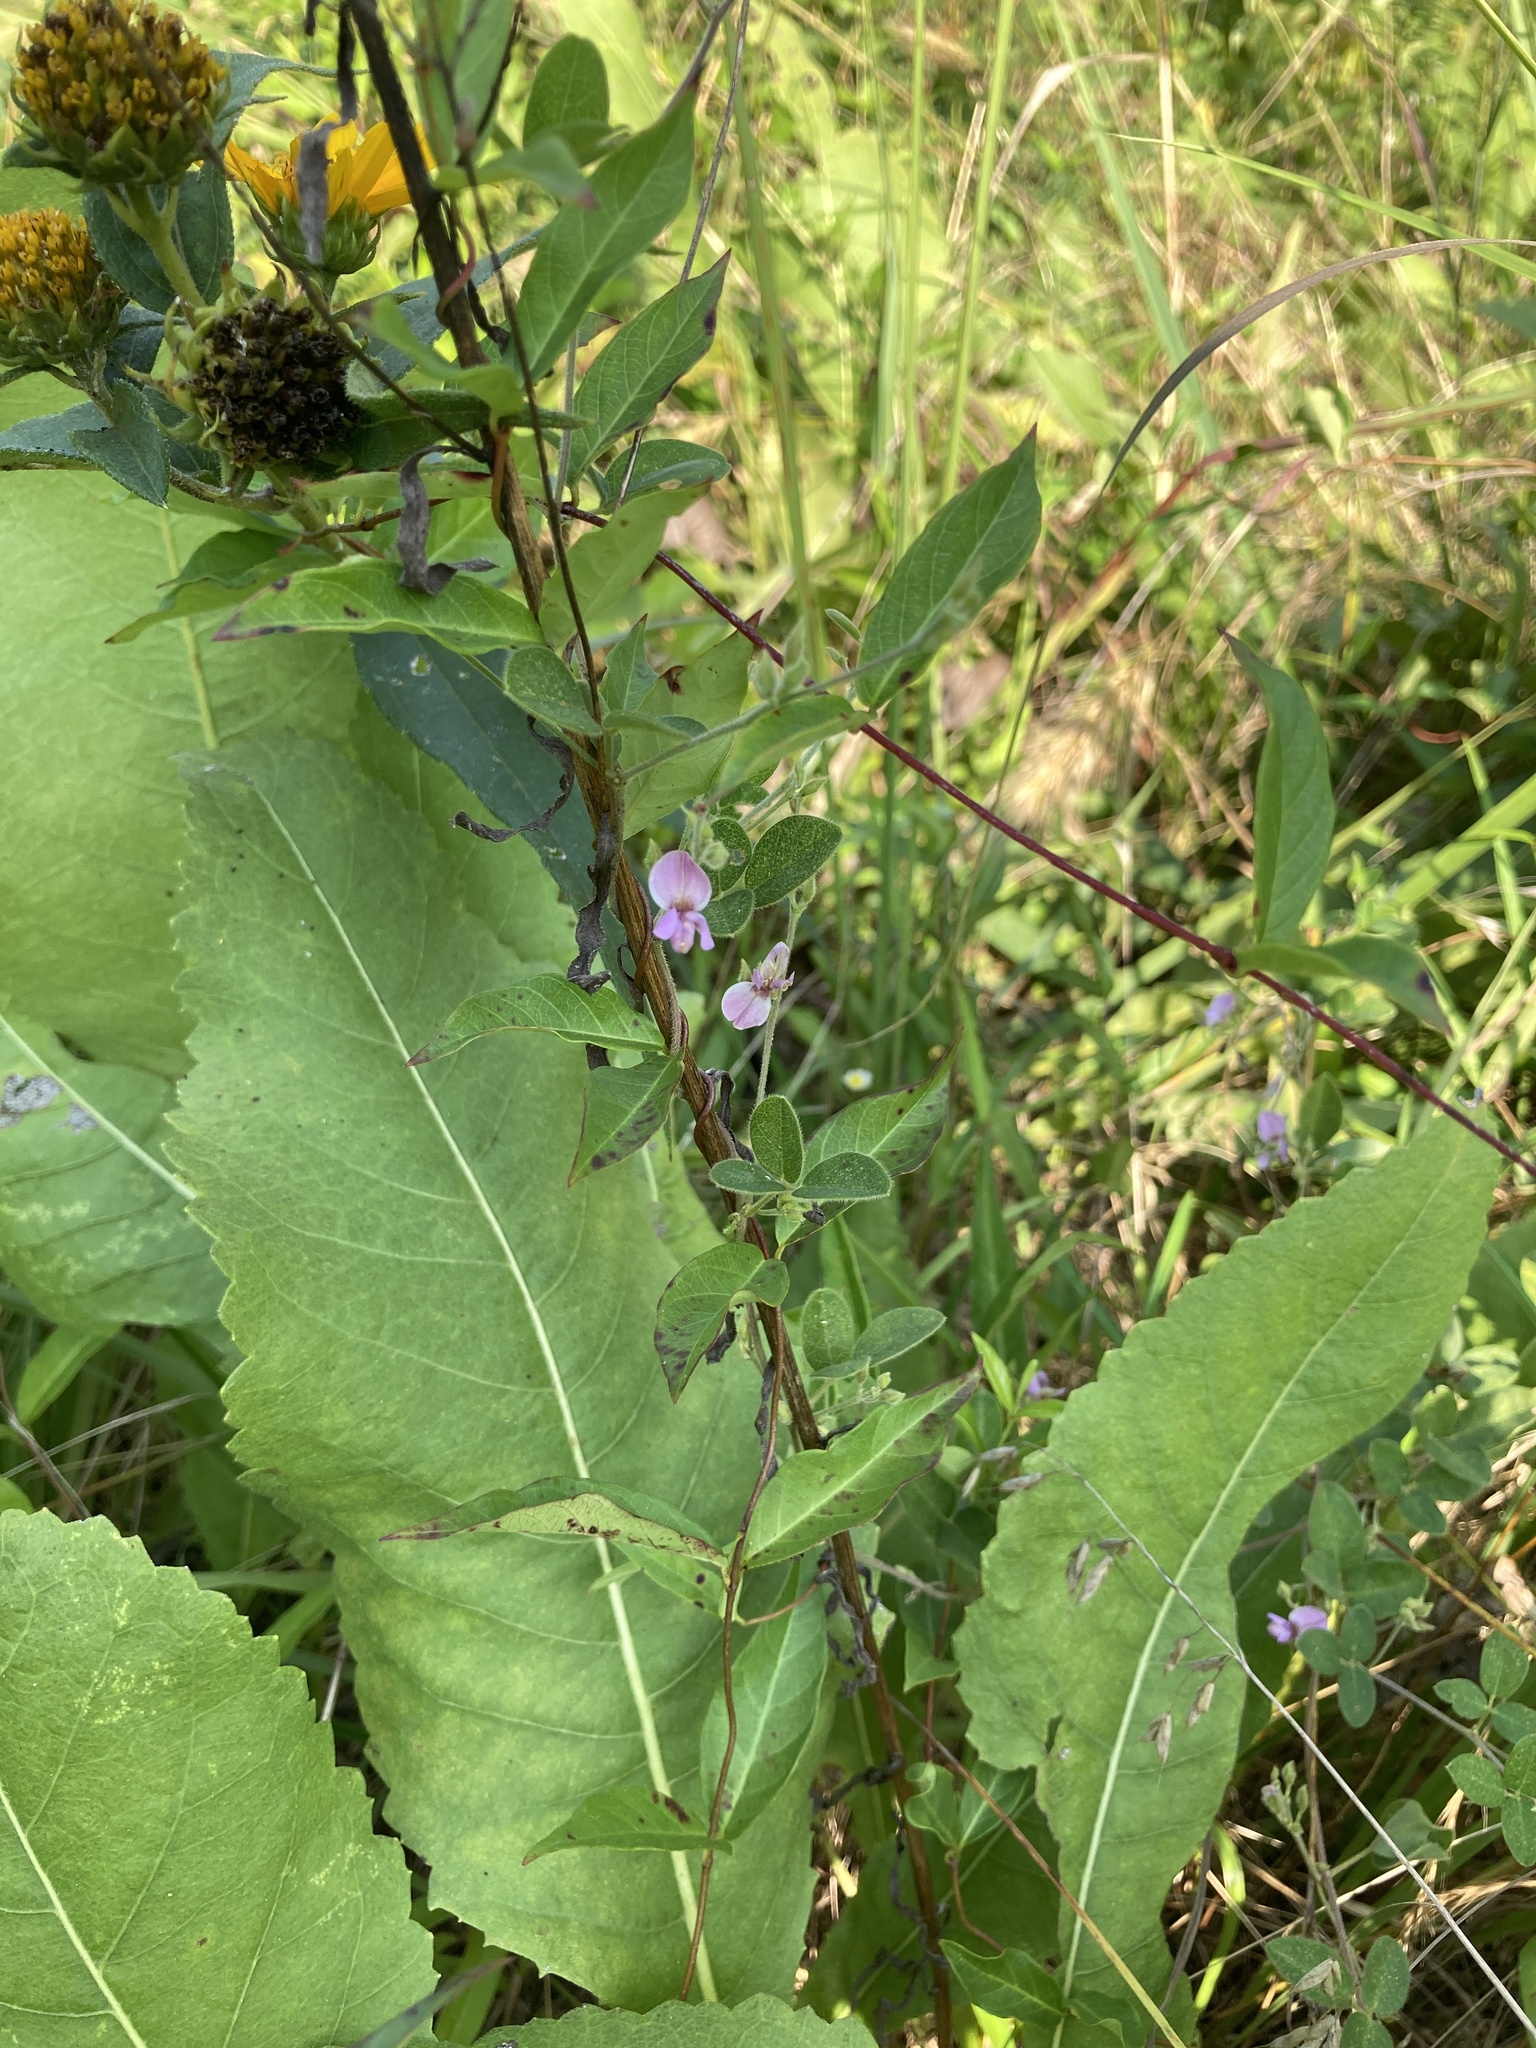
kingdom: Plantae
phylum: Tracheophyta
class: Magnoliopsida
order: Fabales
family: Fabaceae
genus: Galactia
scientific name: Galactia regularis
